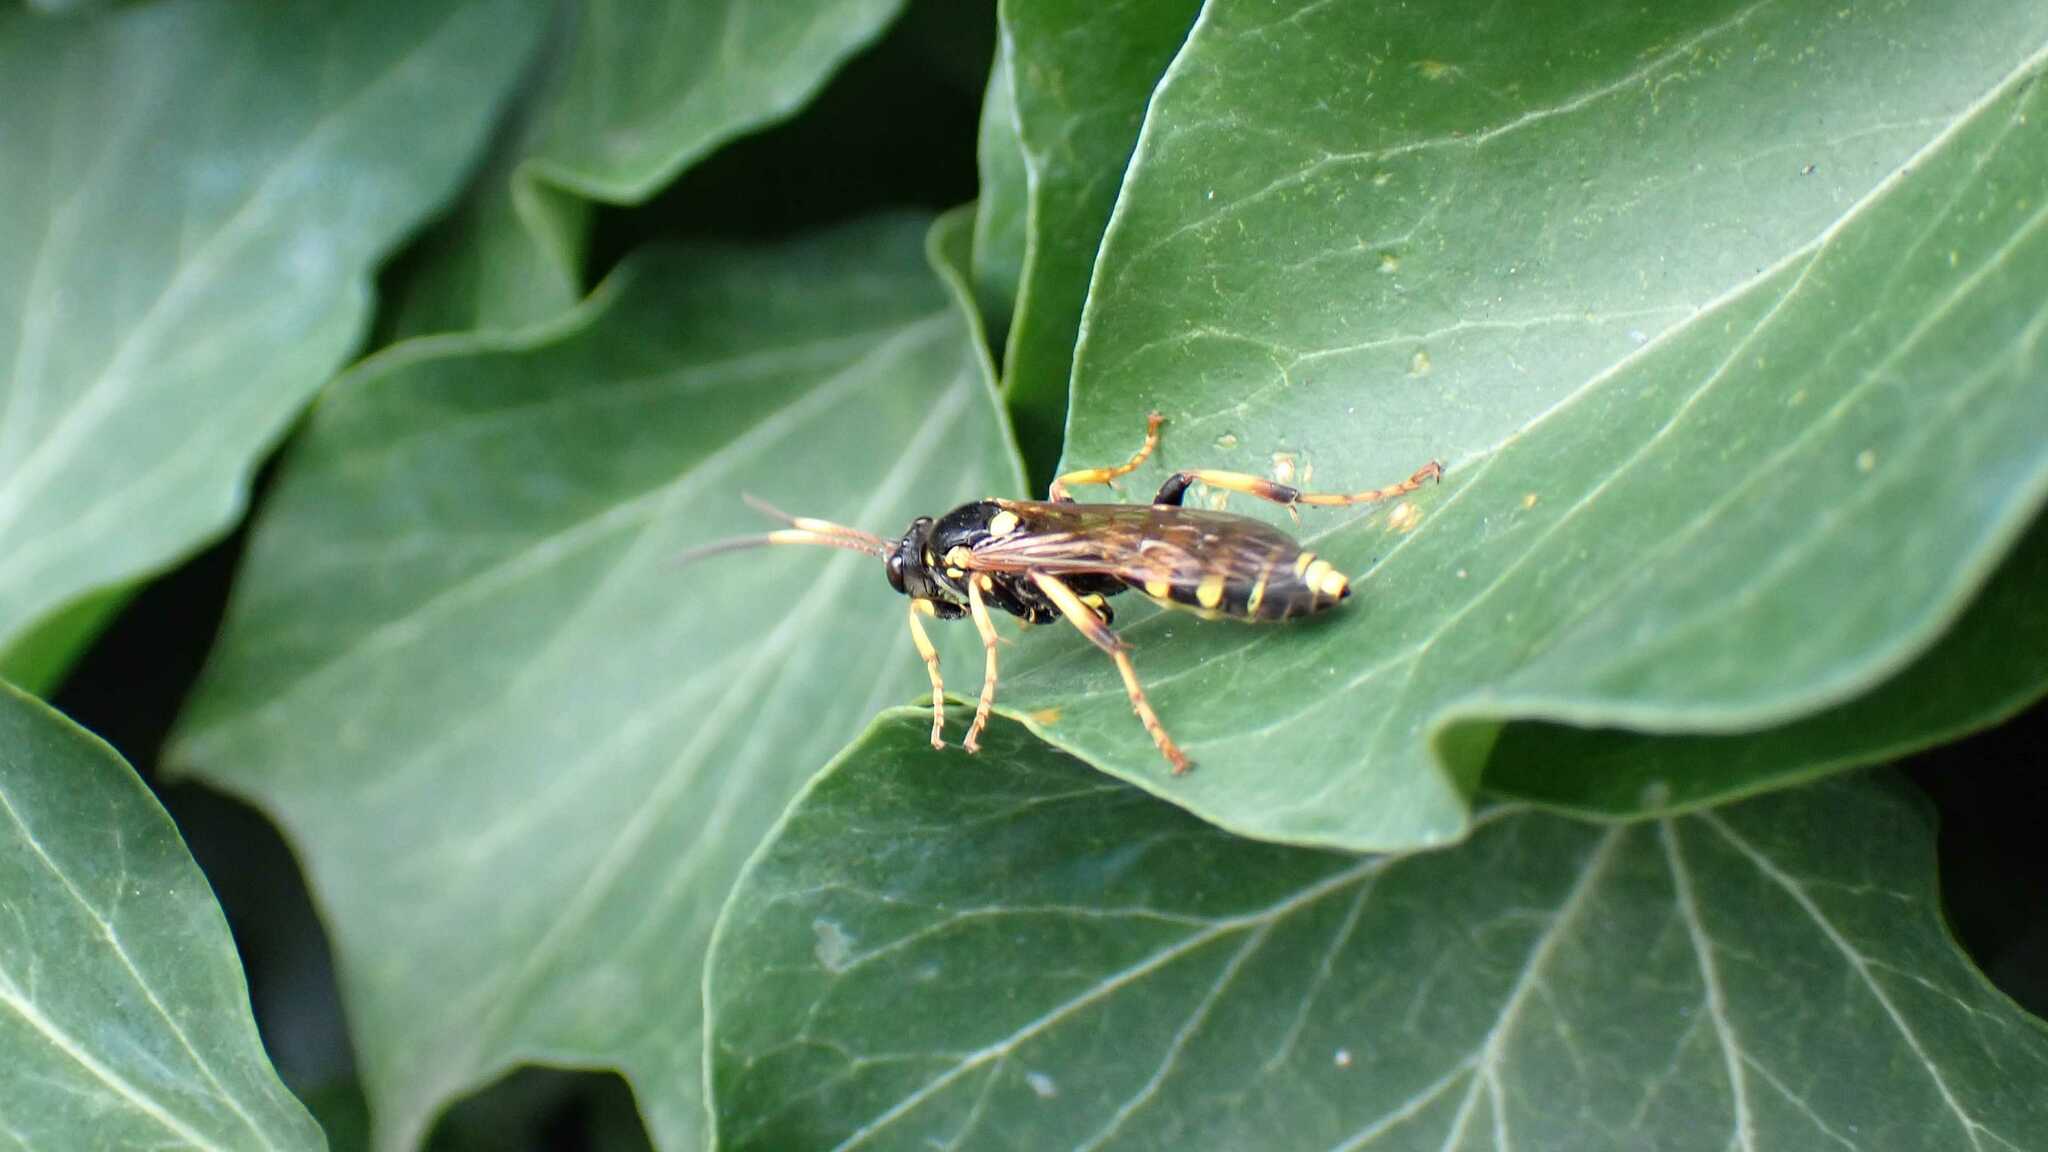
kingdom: Animalia
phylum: Arthropoda
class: Insecta
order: Hymenoptera
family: Ichneumonidae
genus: Ichneumon
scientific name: Ichneumon xanthorius
